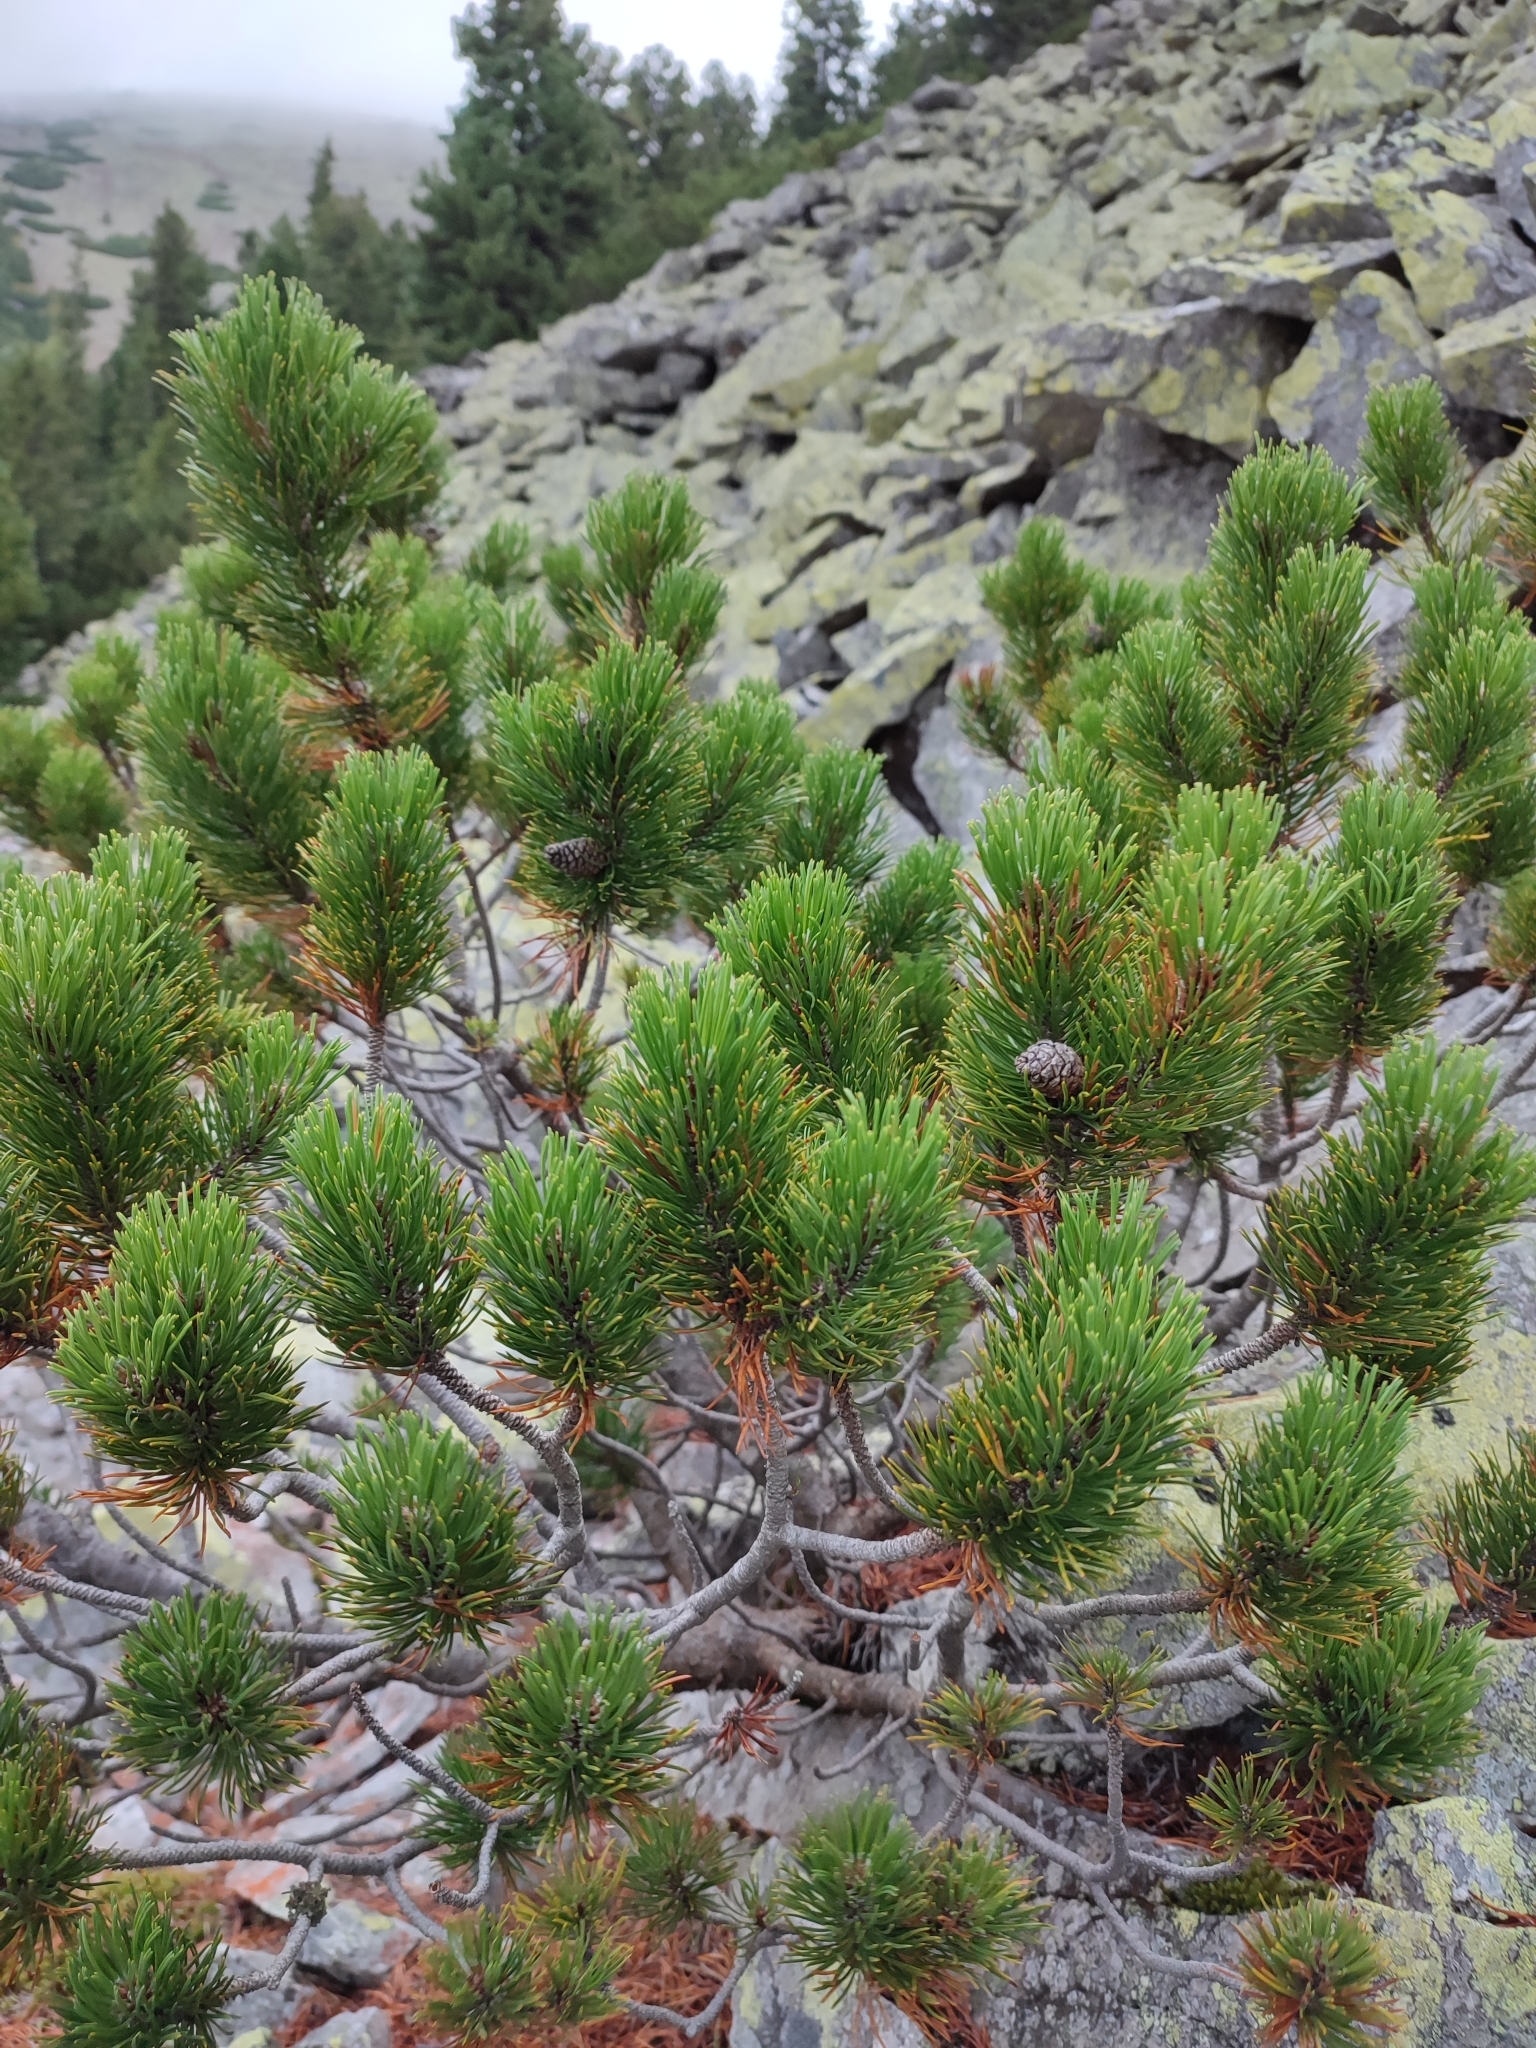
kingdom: Plantae
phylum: Tracheophyta
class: Pinopsida
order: Pinales
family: Pinaceae
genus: Pinus
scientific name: Pinus mugo
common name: Mugo pine
